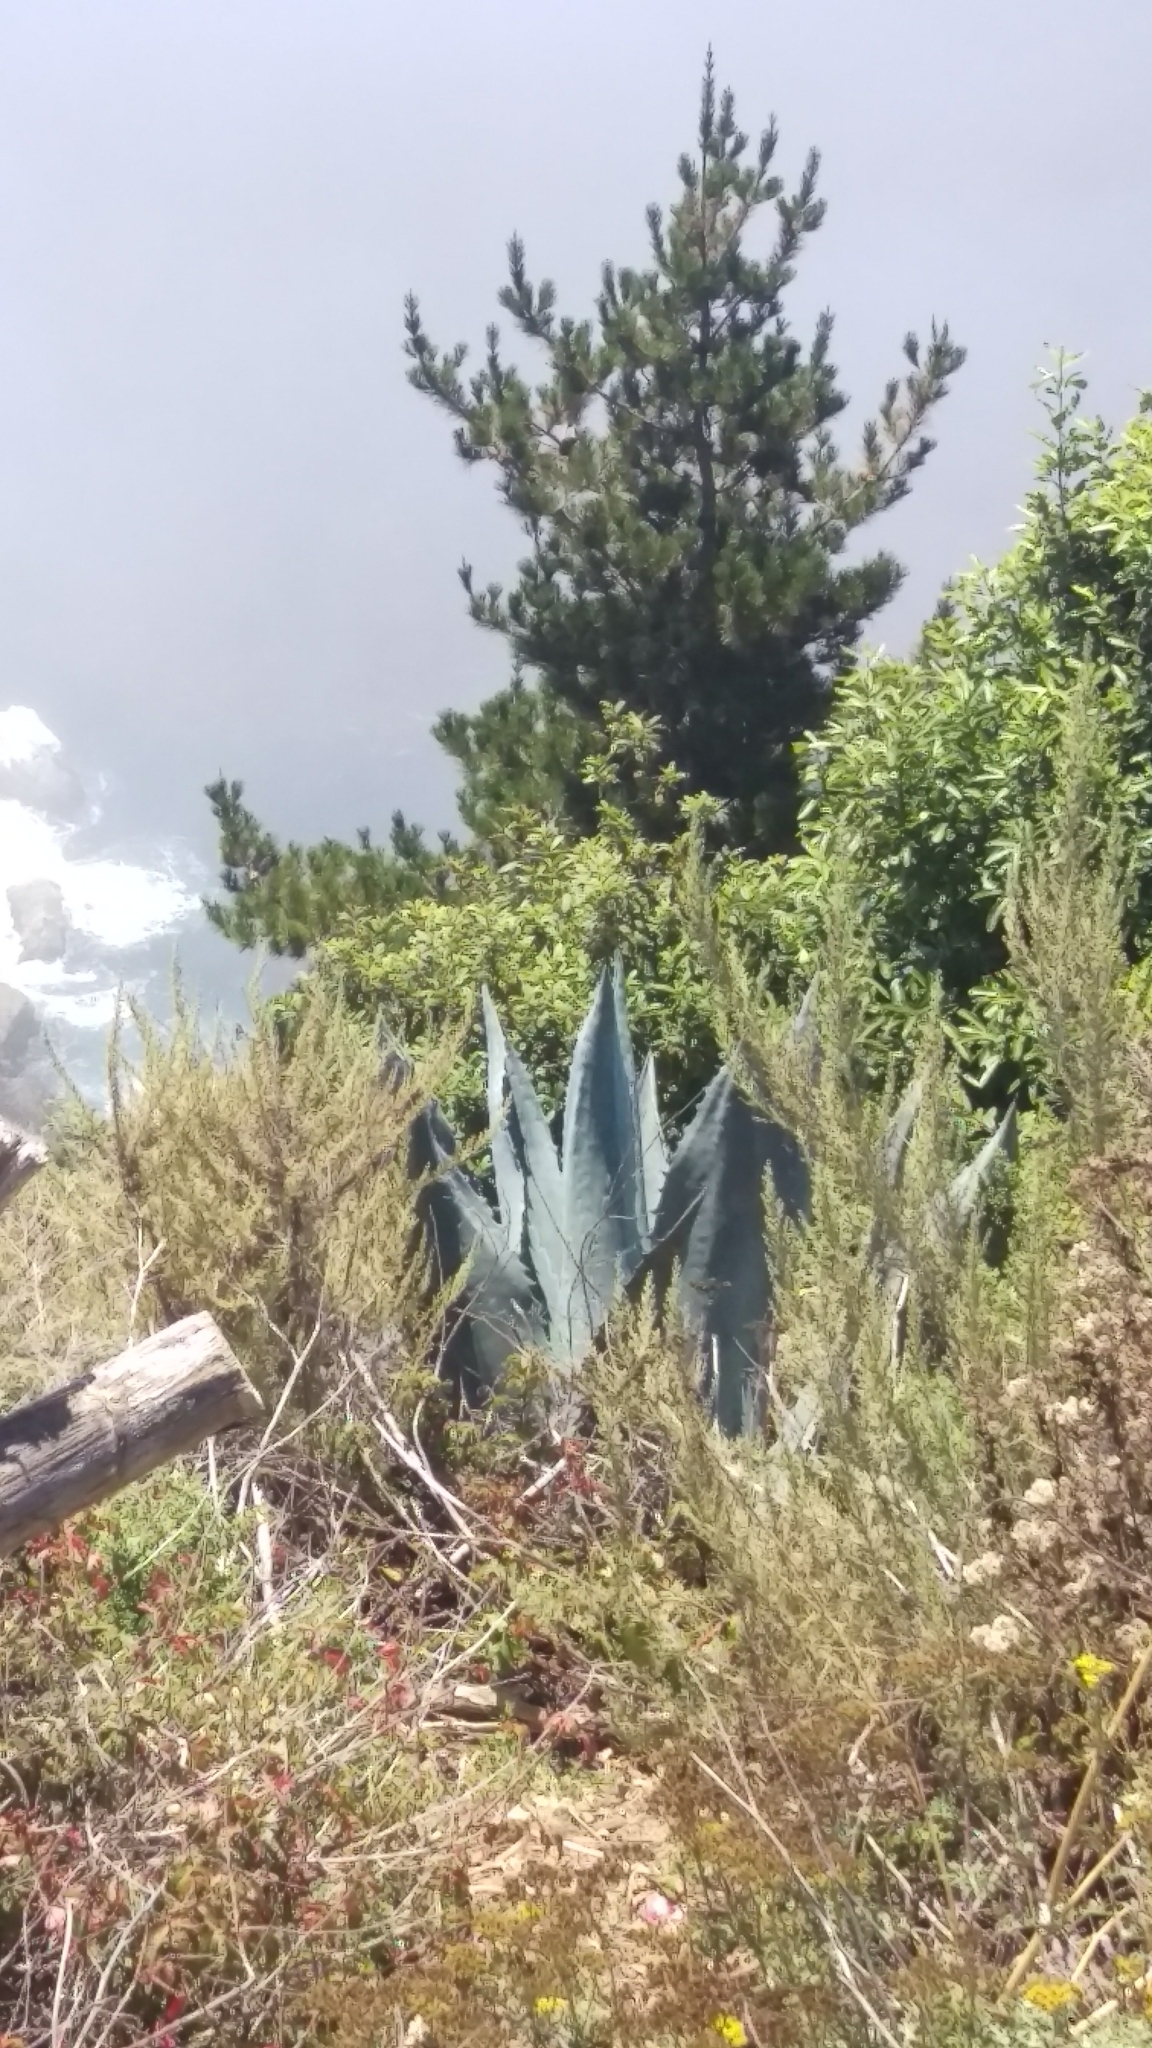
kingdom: Plantae
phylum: Tracheophyta
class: Liliopsida
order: Asparagales
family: Asparagaceae
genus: Agave
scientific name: Agave americana
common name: Centuryplant
